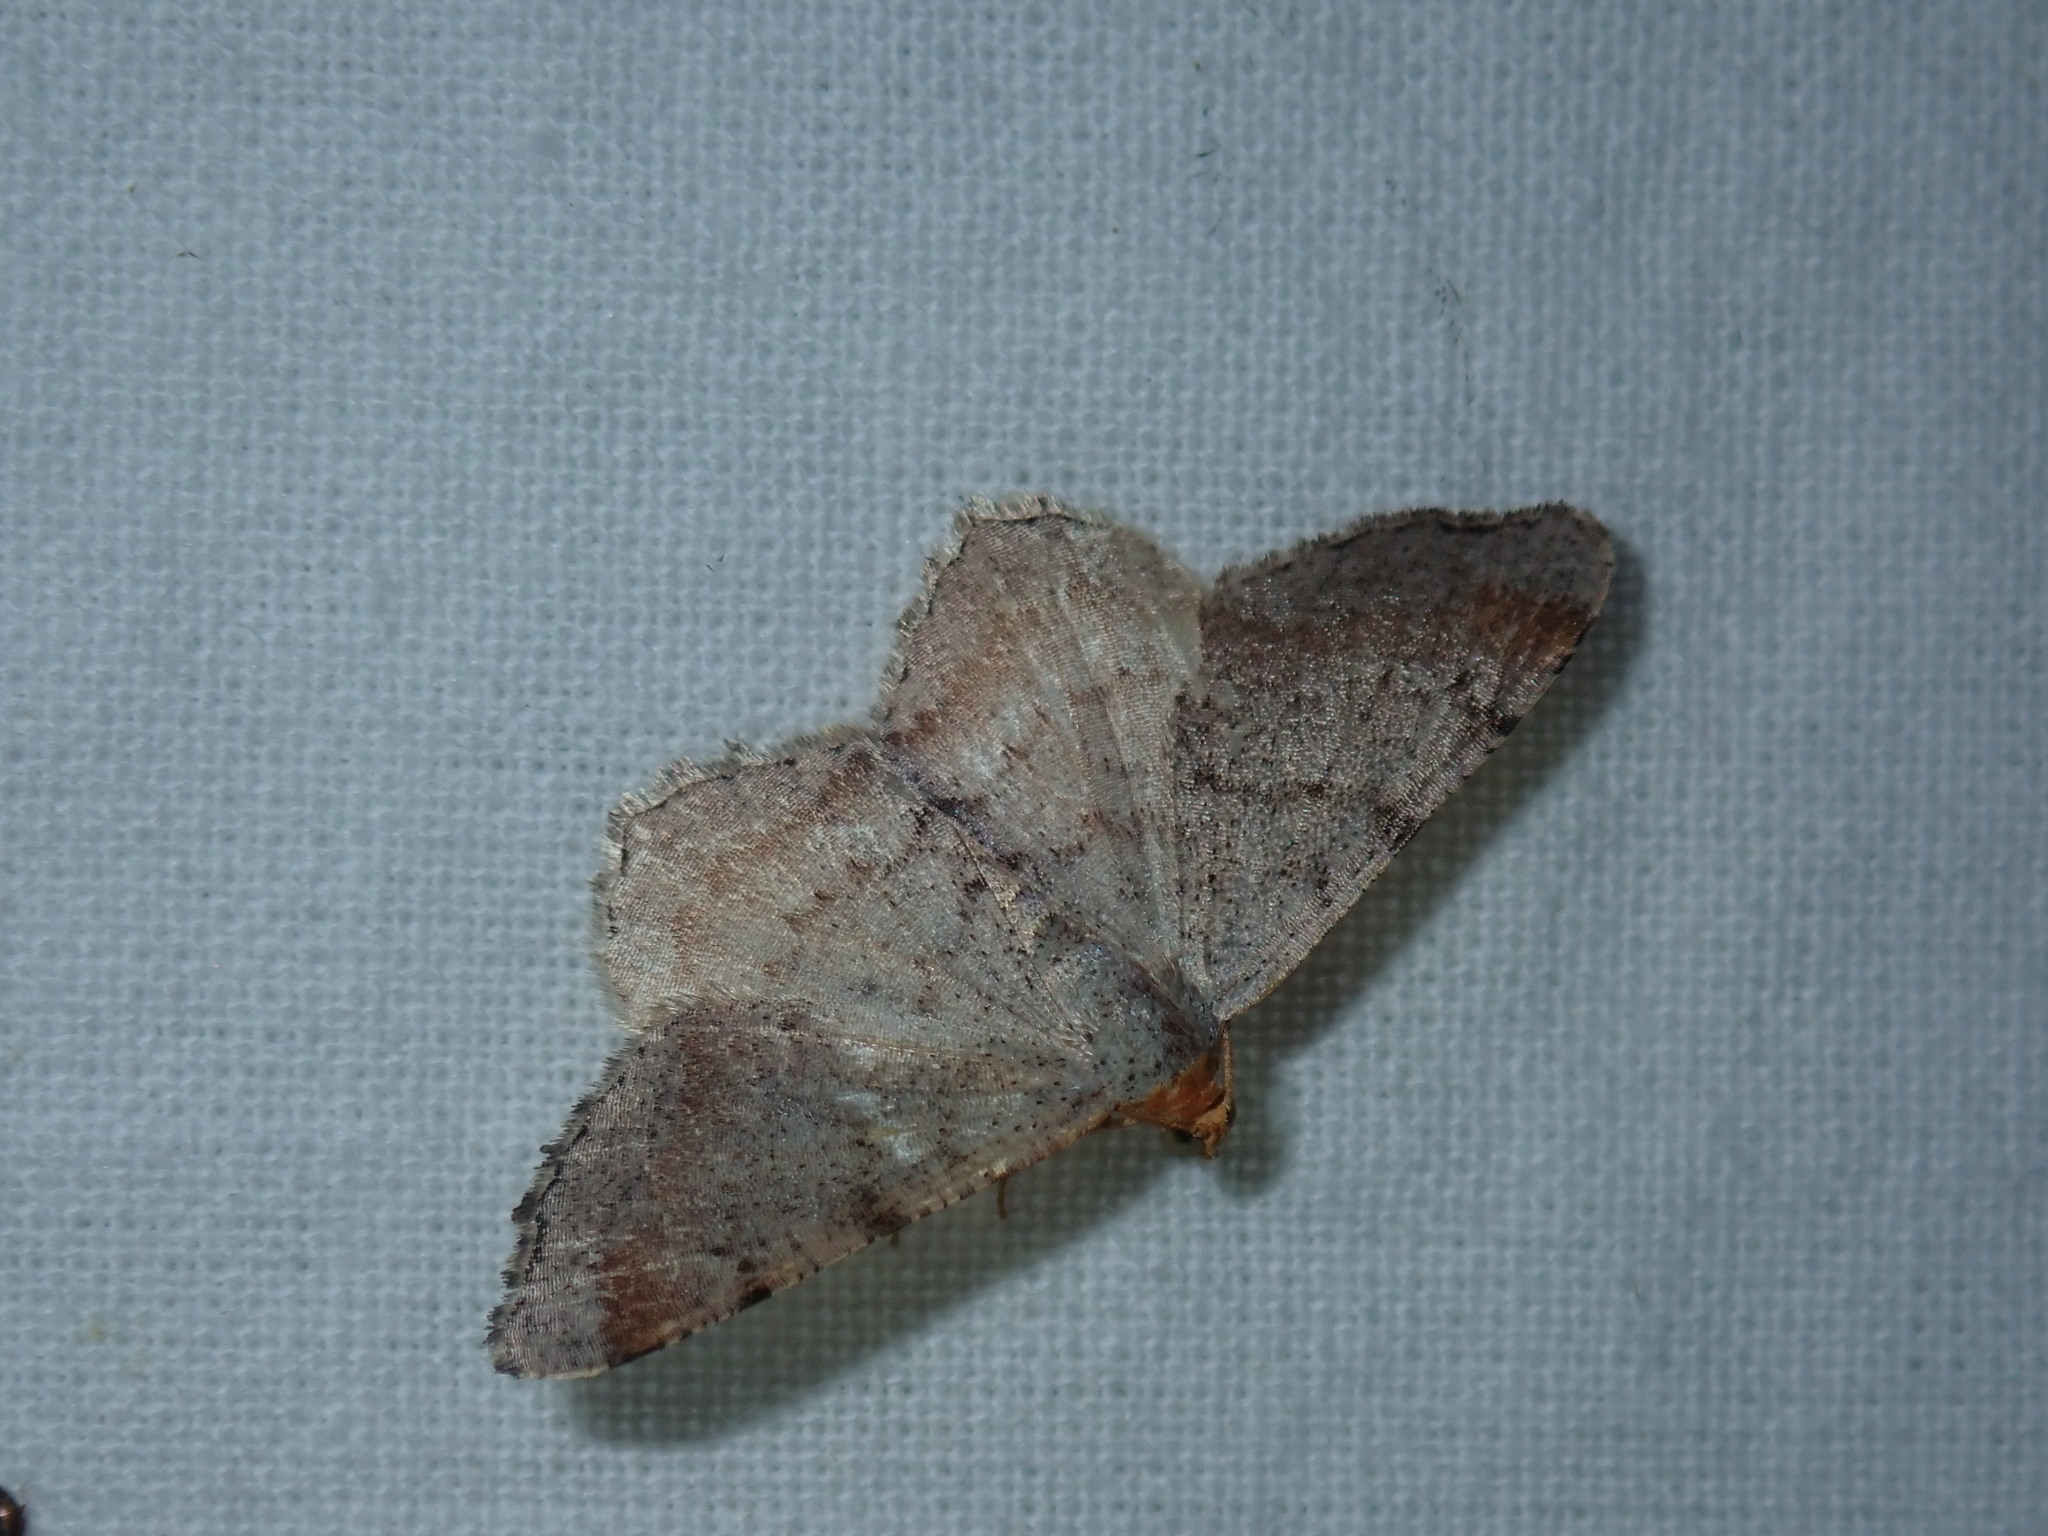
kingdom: Animalia
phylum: Arthropoda
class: Insecta
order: Lepidoptera
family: Geometridae
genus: Macaria
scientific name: Macaria minorata
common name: Minor angle moth
